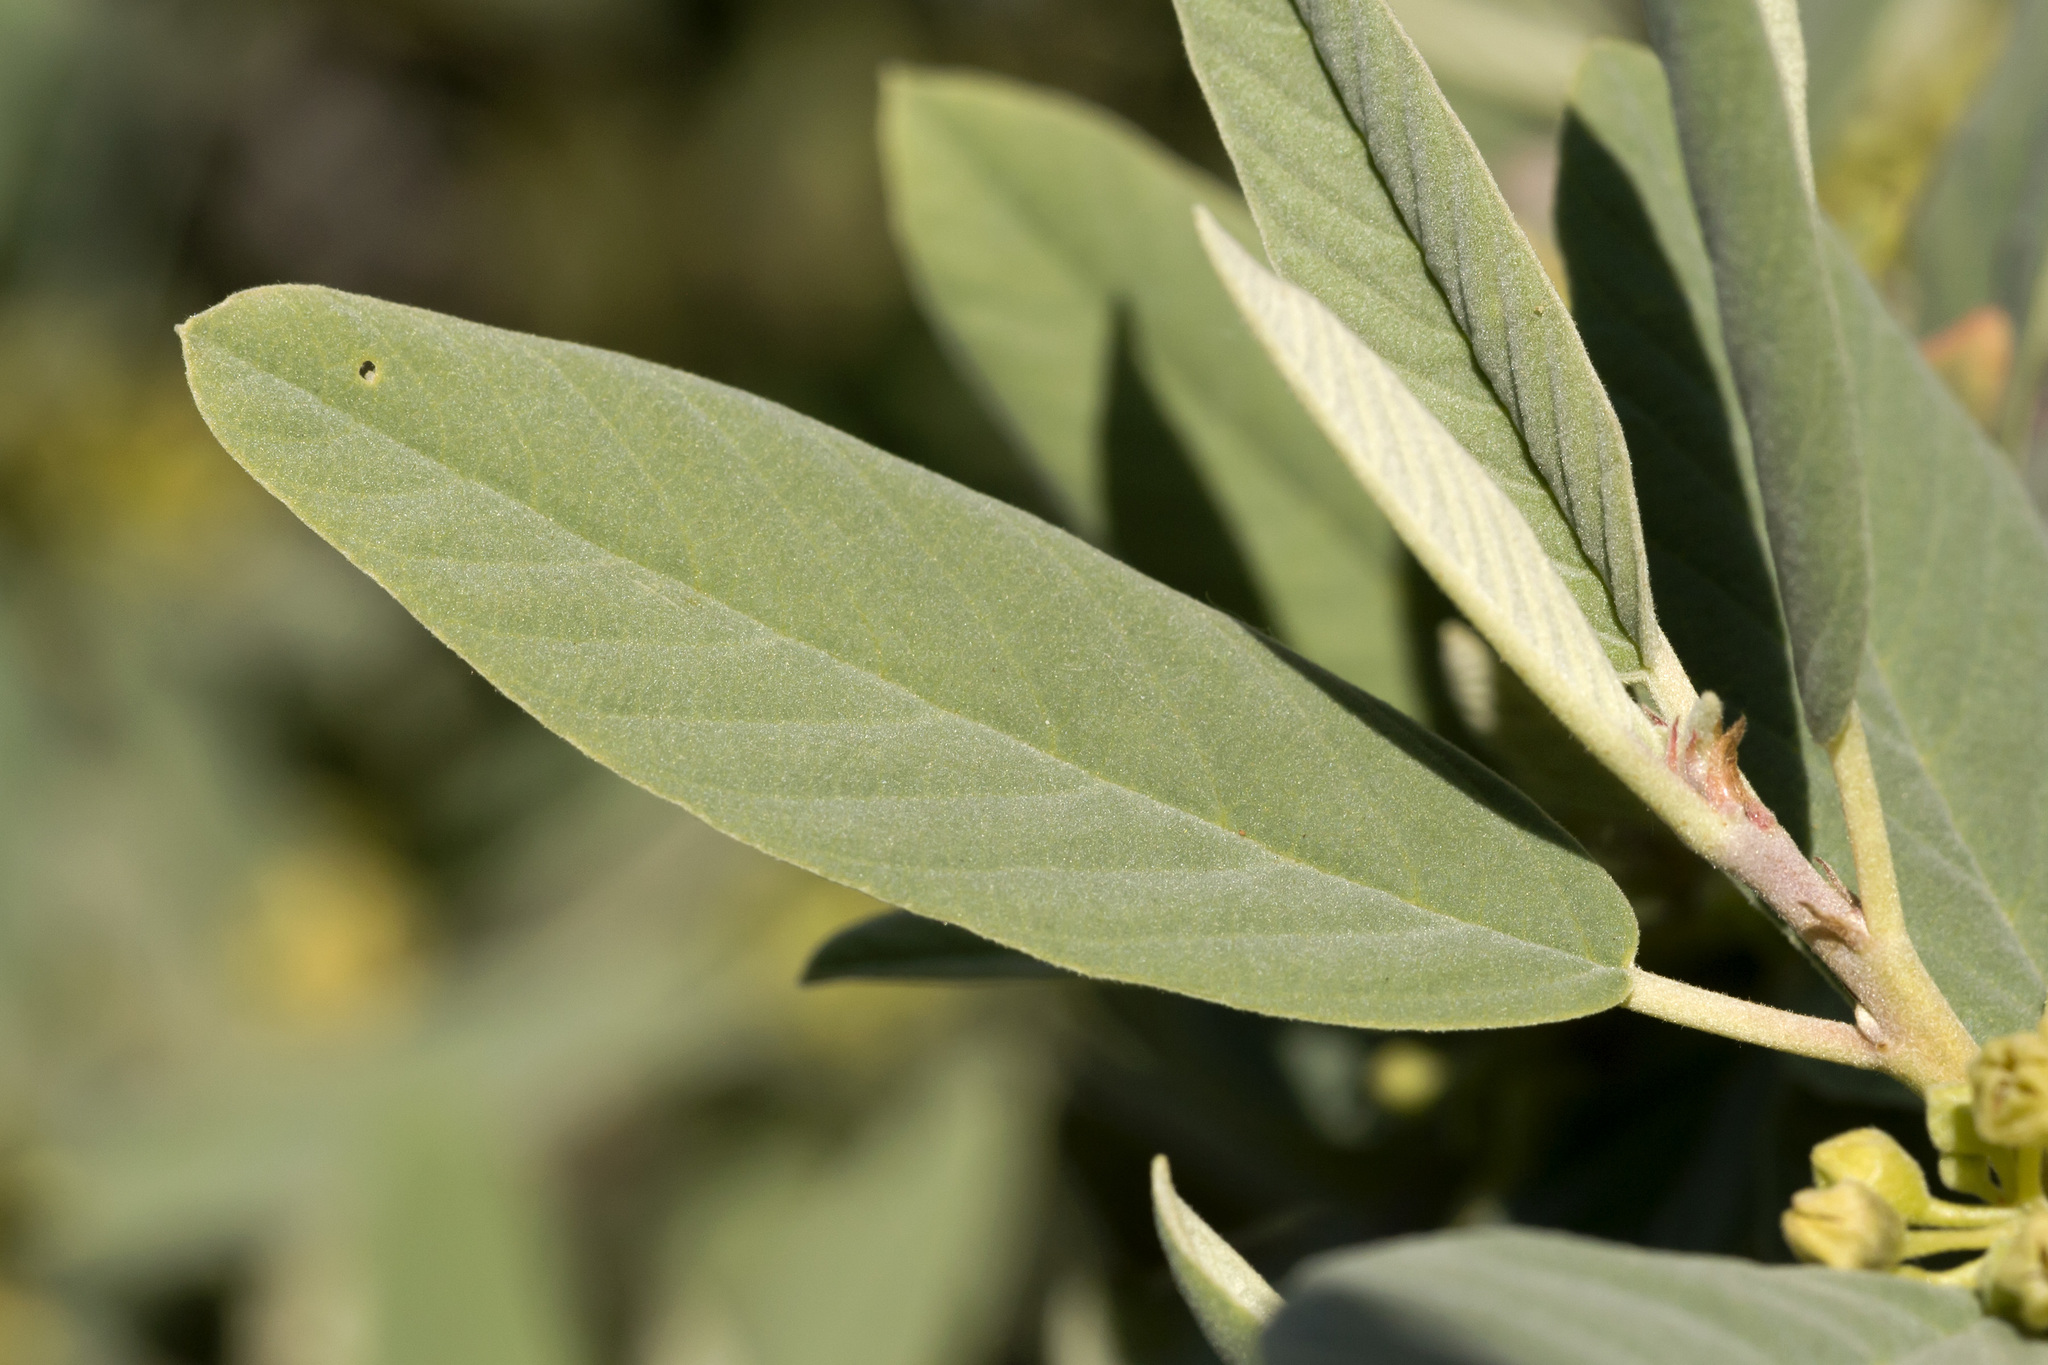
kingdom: Plantae
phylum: Tracheophyta
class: Magnoliopsida
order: Rosales
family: Rhamnaceae
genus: Frangula
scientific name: Frangula californica
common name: California buckthorn
